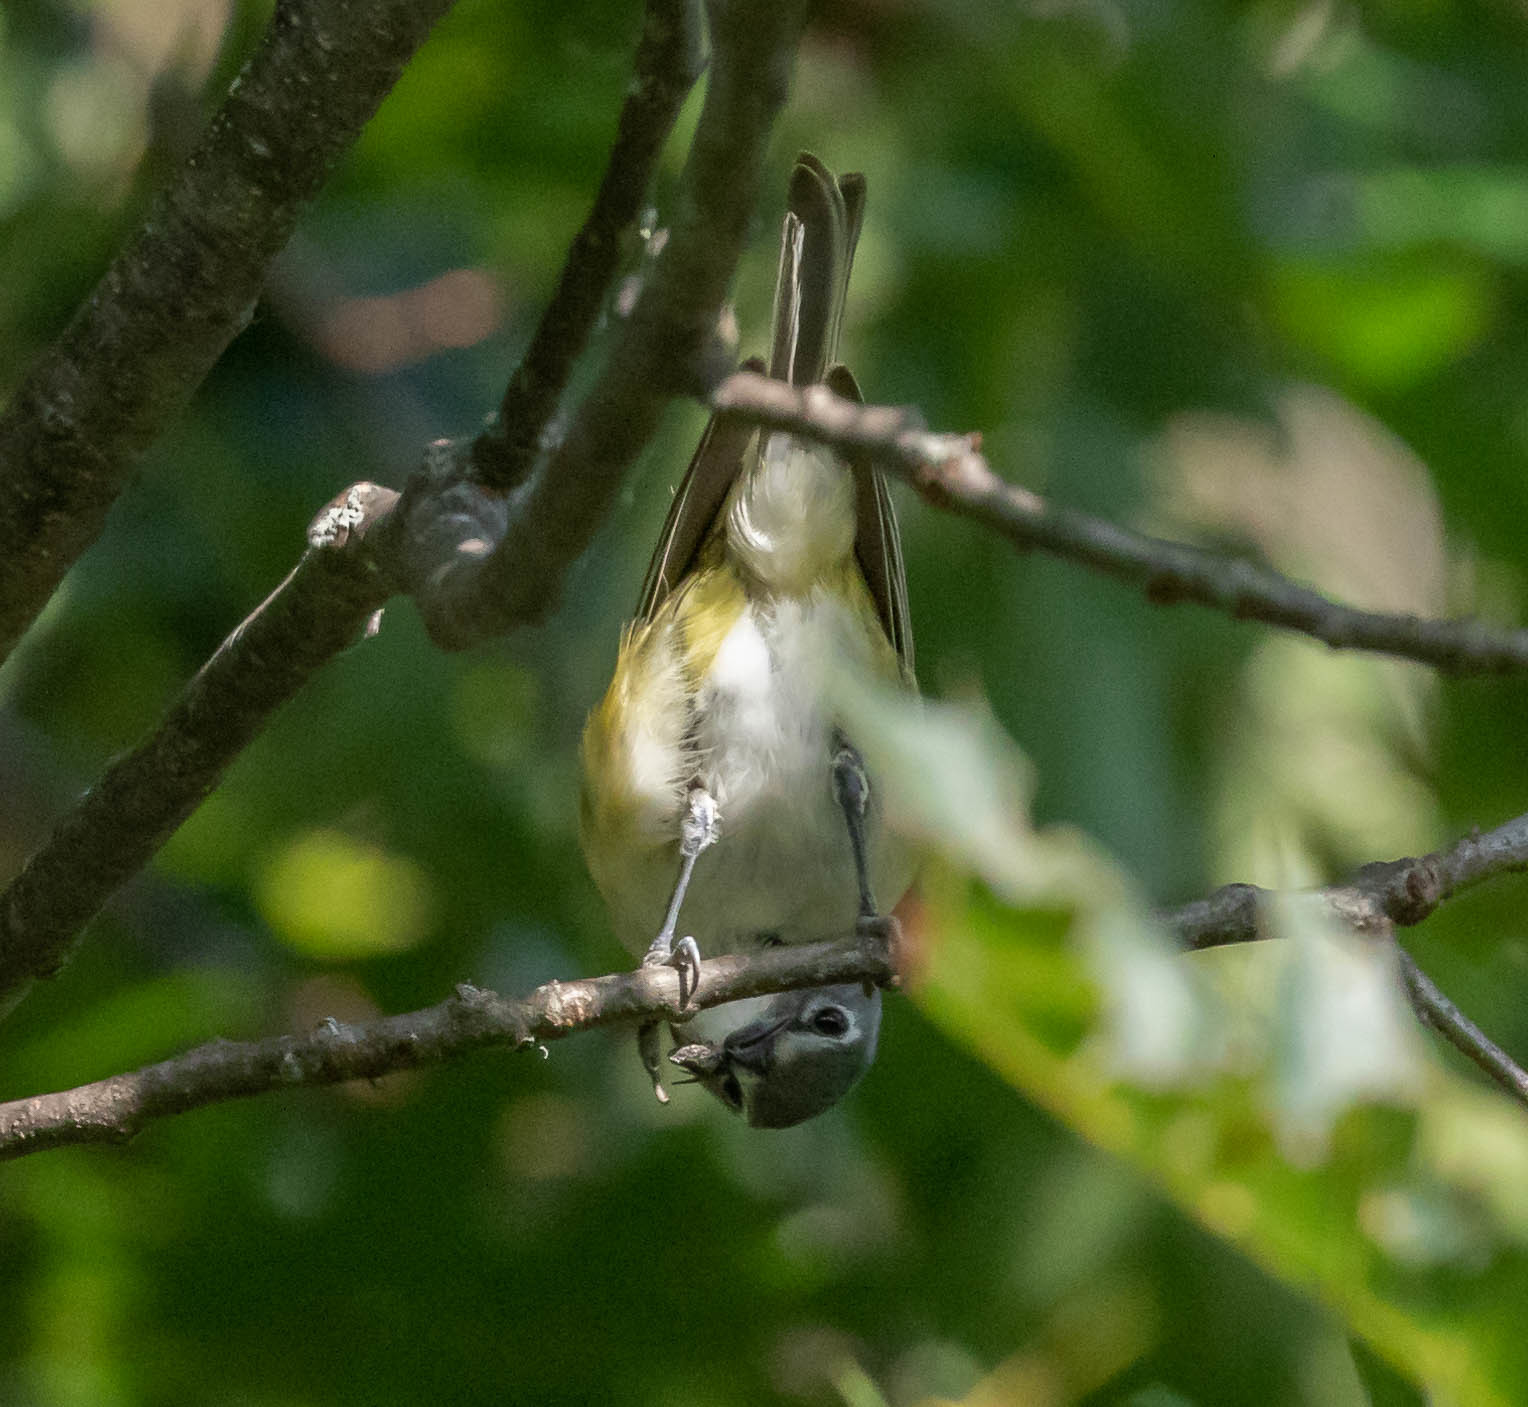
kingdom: Animalia
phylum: Chordata
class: Aves
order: Passeriformes
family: Vireonidae
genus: Vireo
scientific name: Vireo solitarius
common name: Blue-headed vireo
